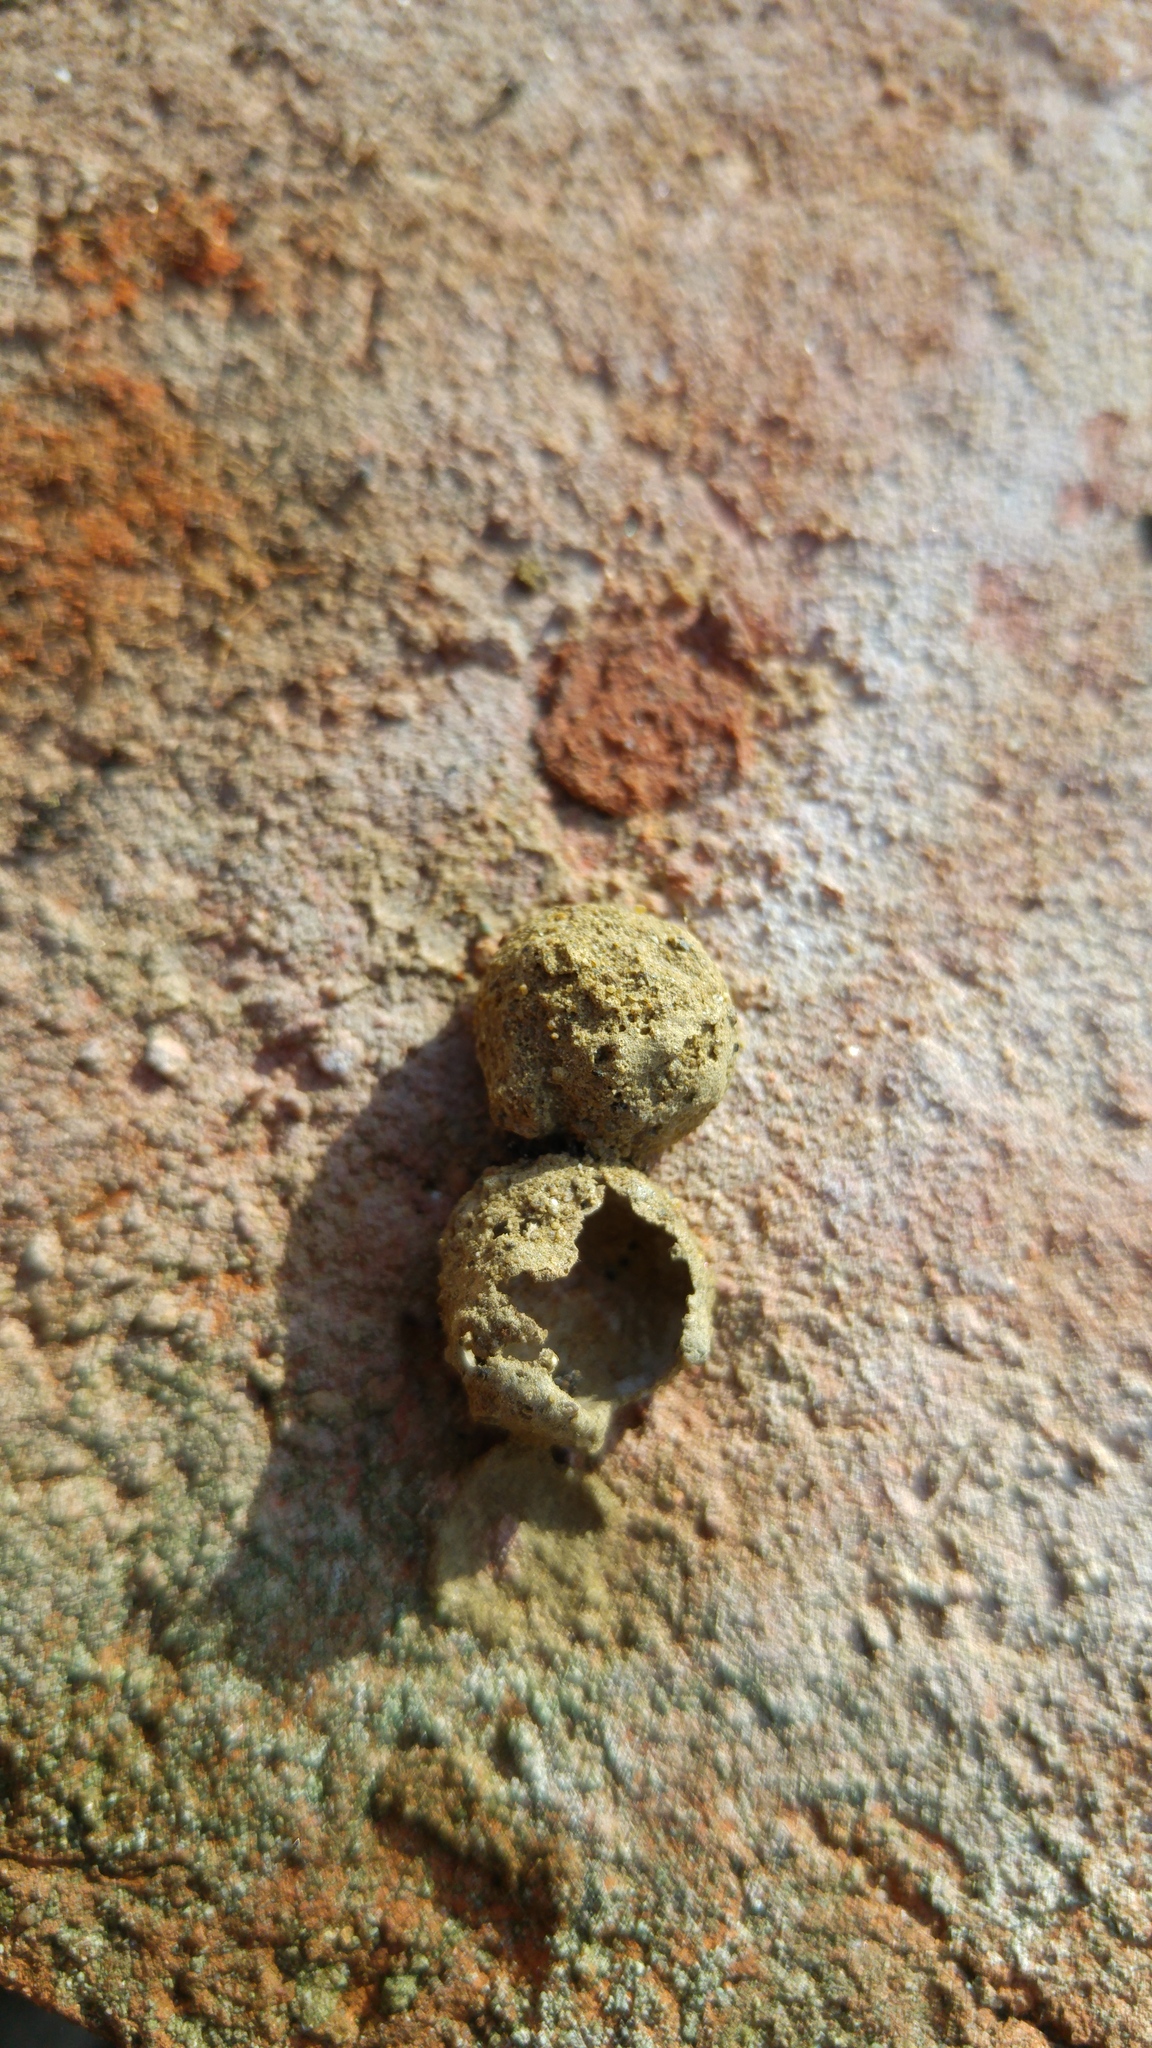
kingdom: Animalia
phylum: Arthropoda
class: Insecta
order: Hymenoptera
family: Eumenidae
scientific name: Eumenidae
